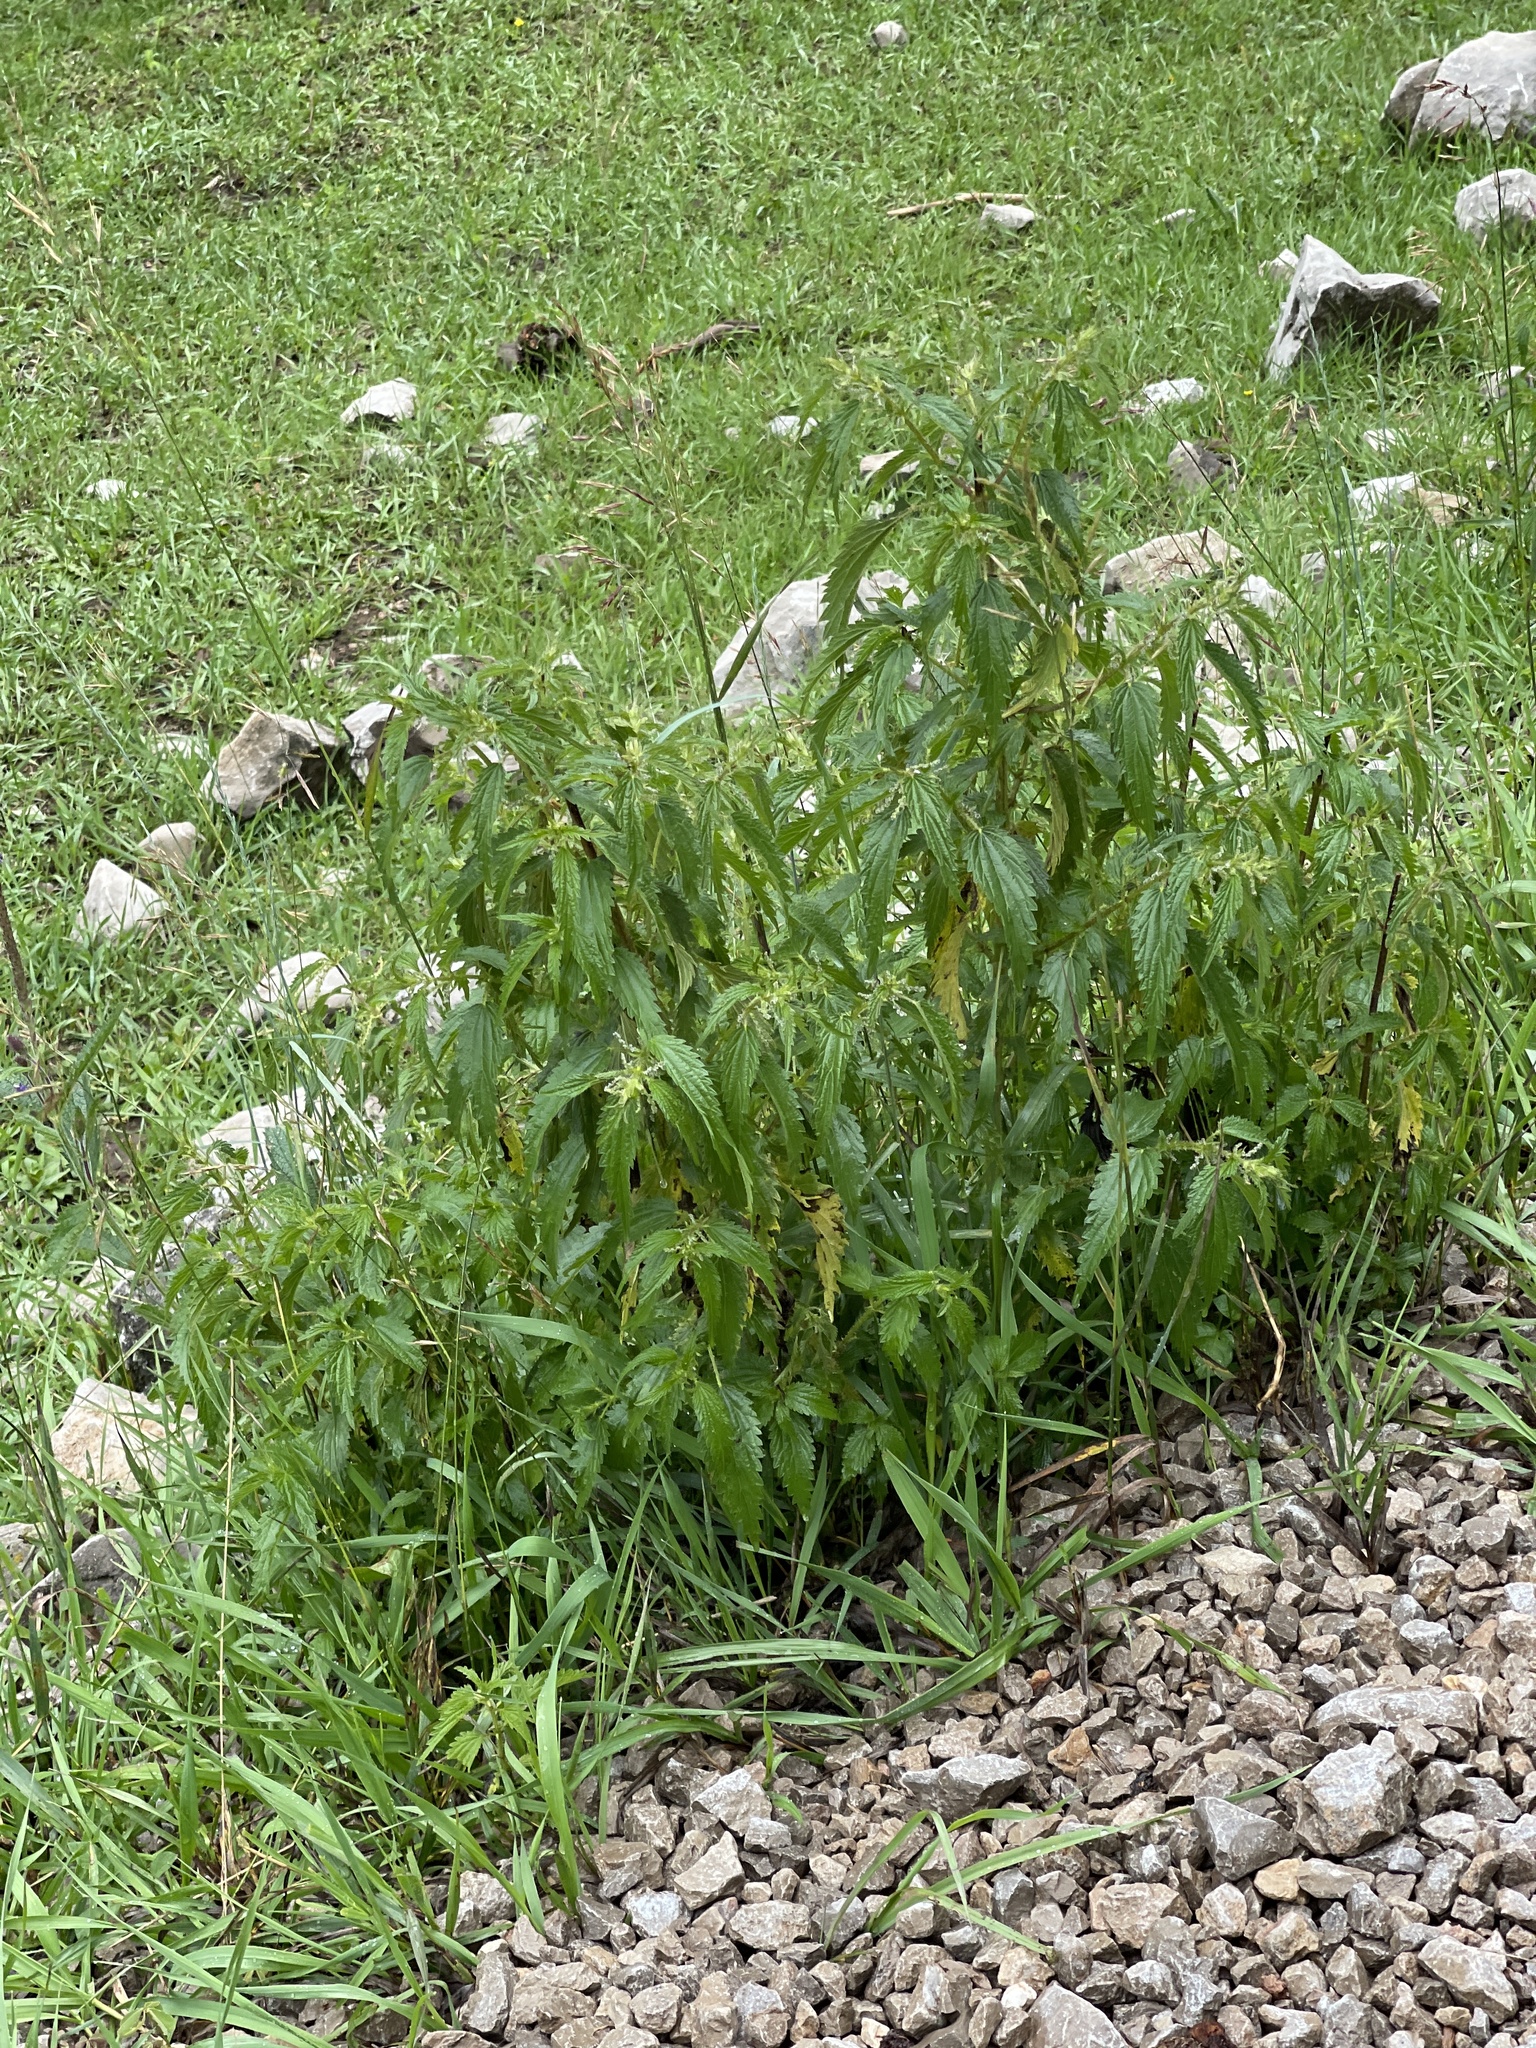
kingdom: Plantae
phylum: Tracheophyta
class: Magnoliopsida
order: Rosales
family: Urticaceae
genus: Urtica
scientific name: Urtica gracilis
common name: Slender stinging nettle
